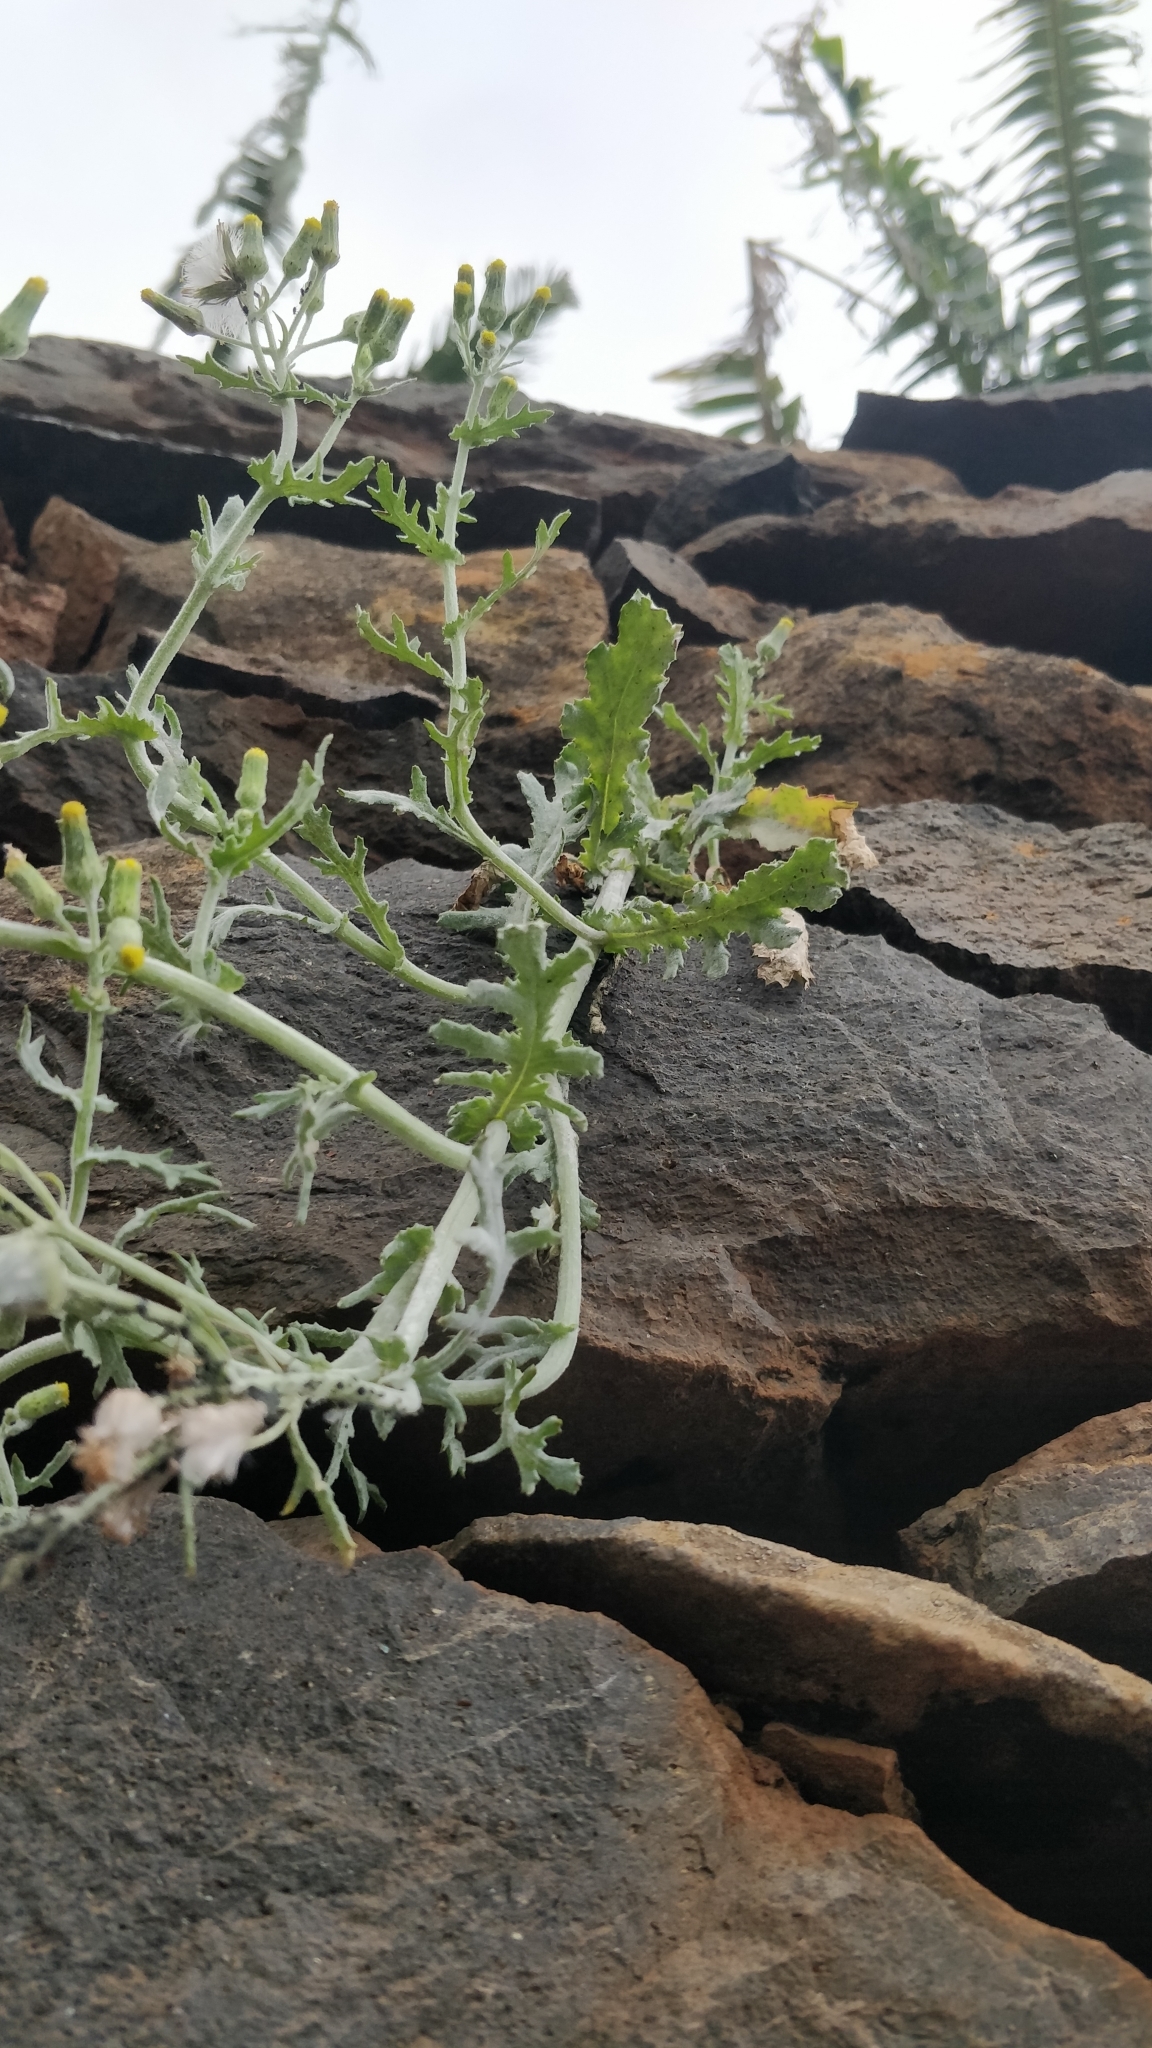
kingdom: Plantae
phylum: Tracheophyta
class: Magnoliopsida
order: Asterales
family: Asteraceae
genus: Senecio
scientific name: Senecio vulgaris
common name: Old-man-in-the-spring
